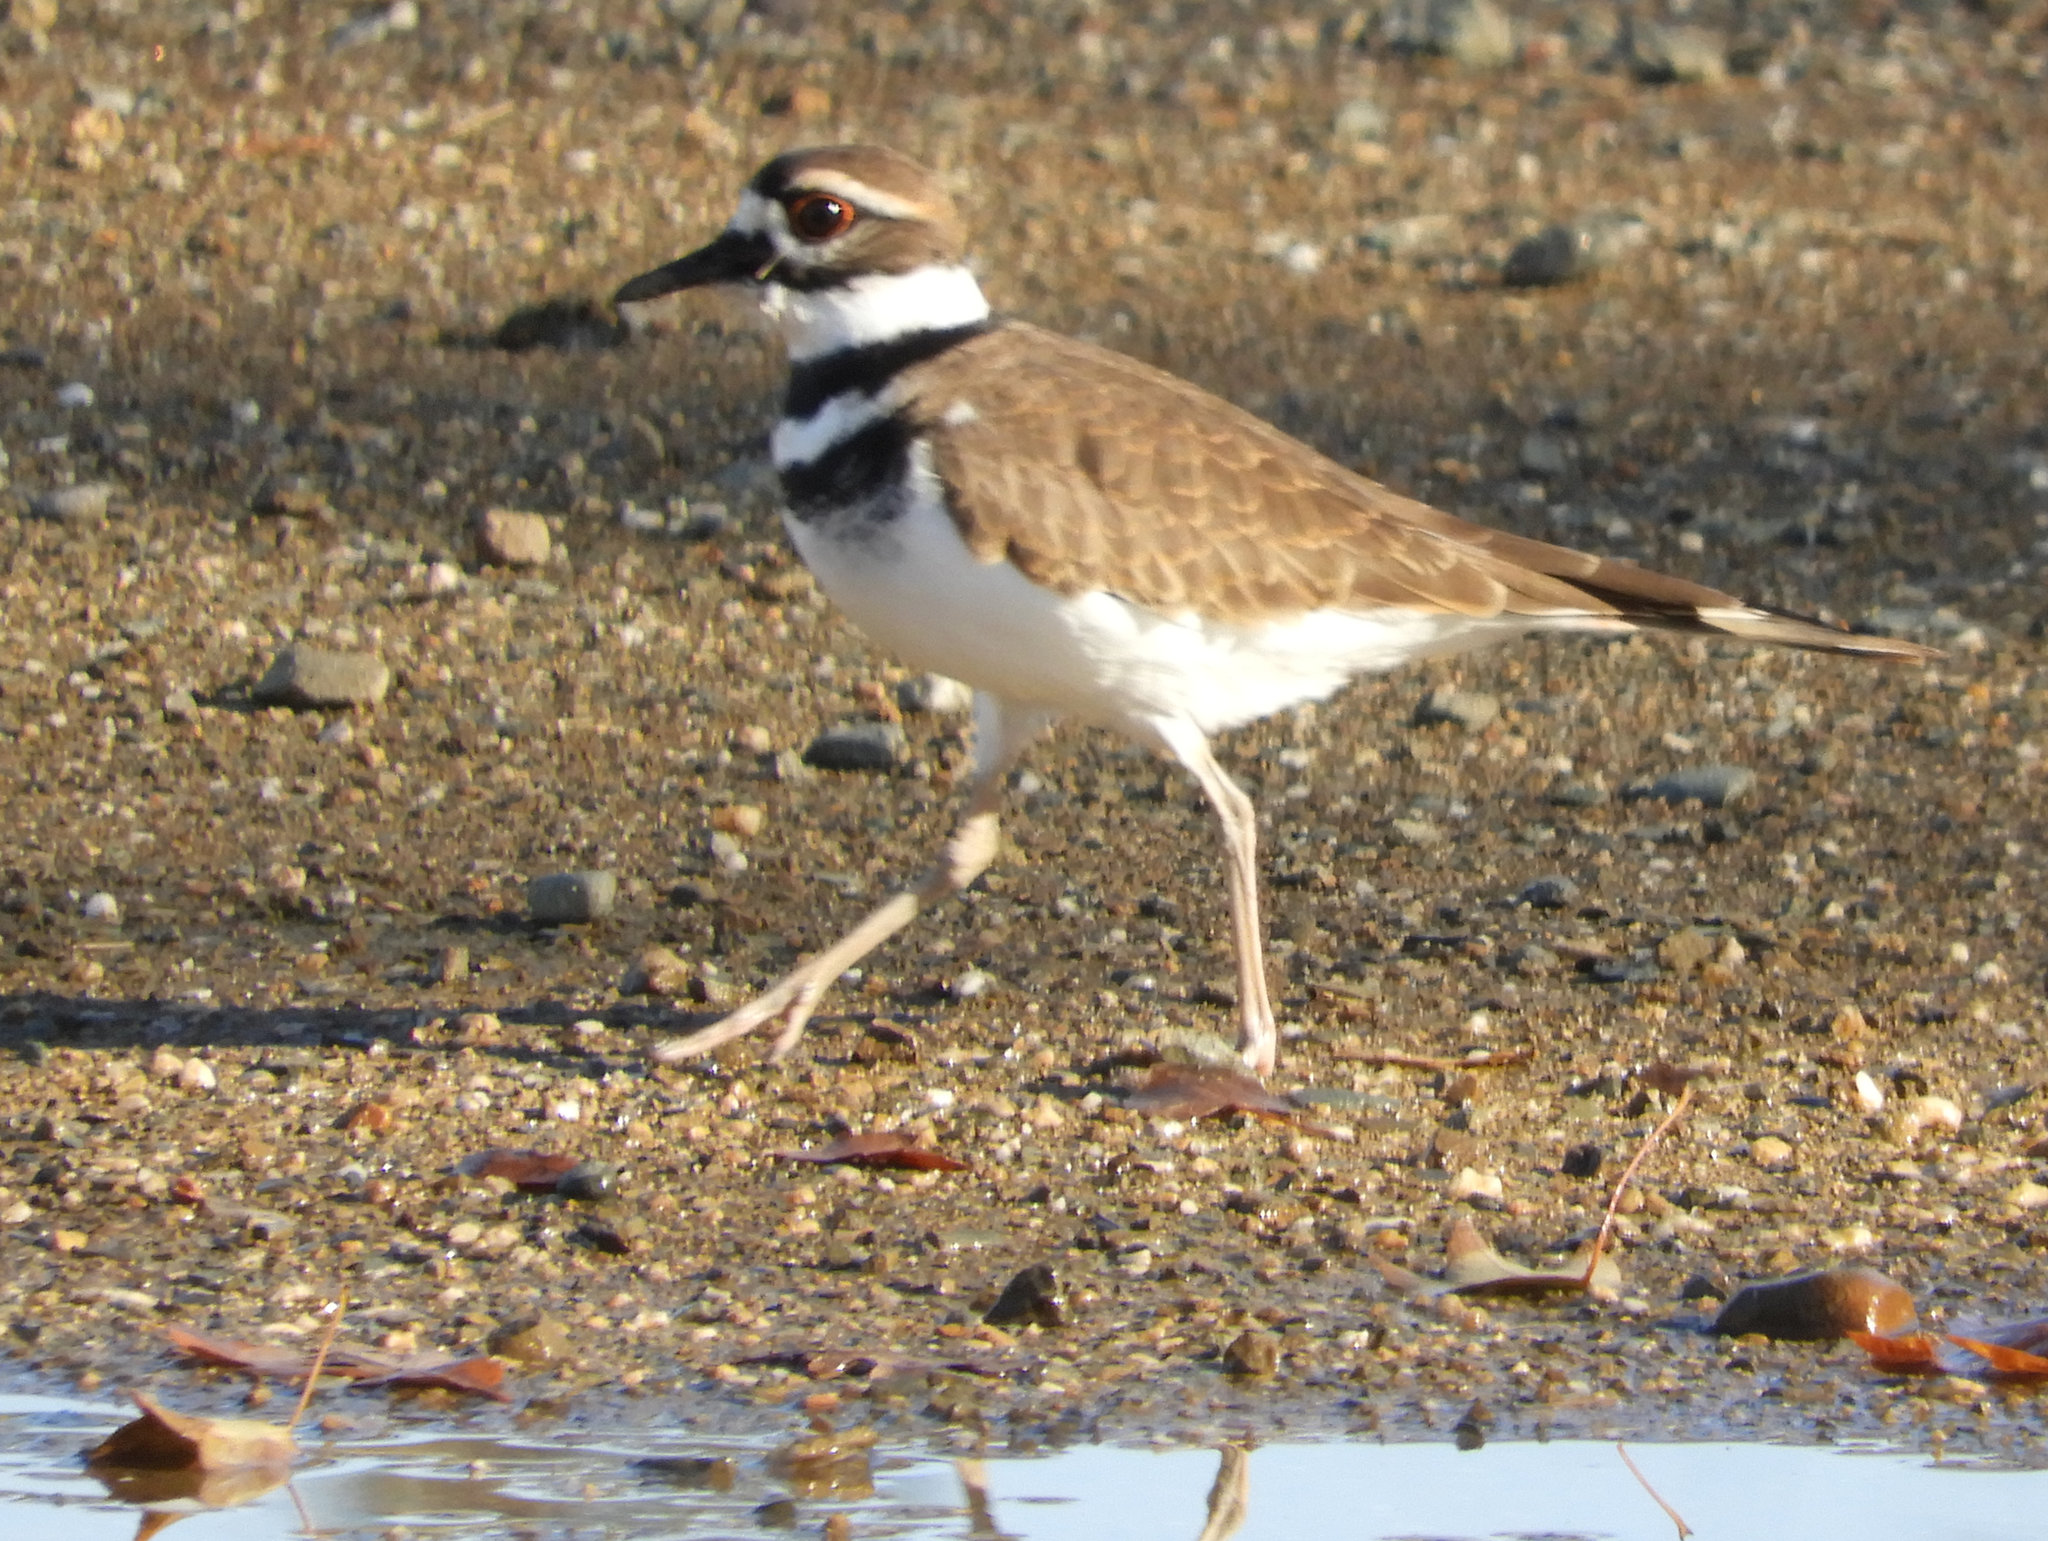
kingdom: Animalia
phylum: Chordata
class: Aves
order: Charadriiformes
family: Charadriidae
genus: Charadrius
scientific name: Charadrius vociferus
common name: Killdeer
